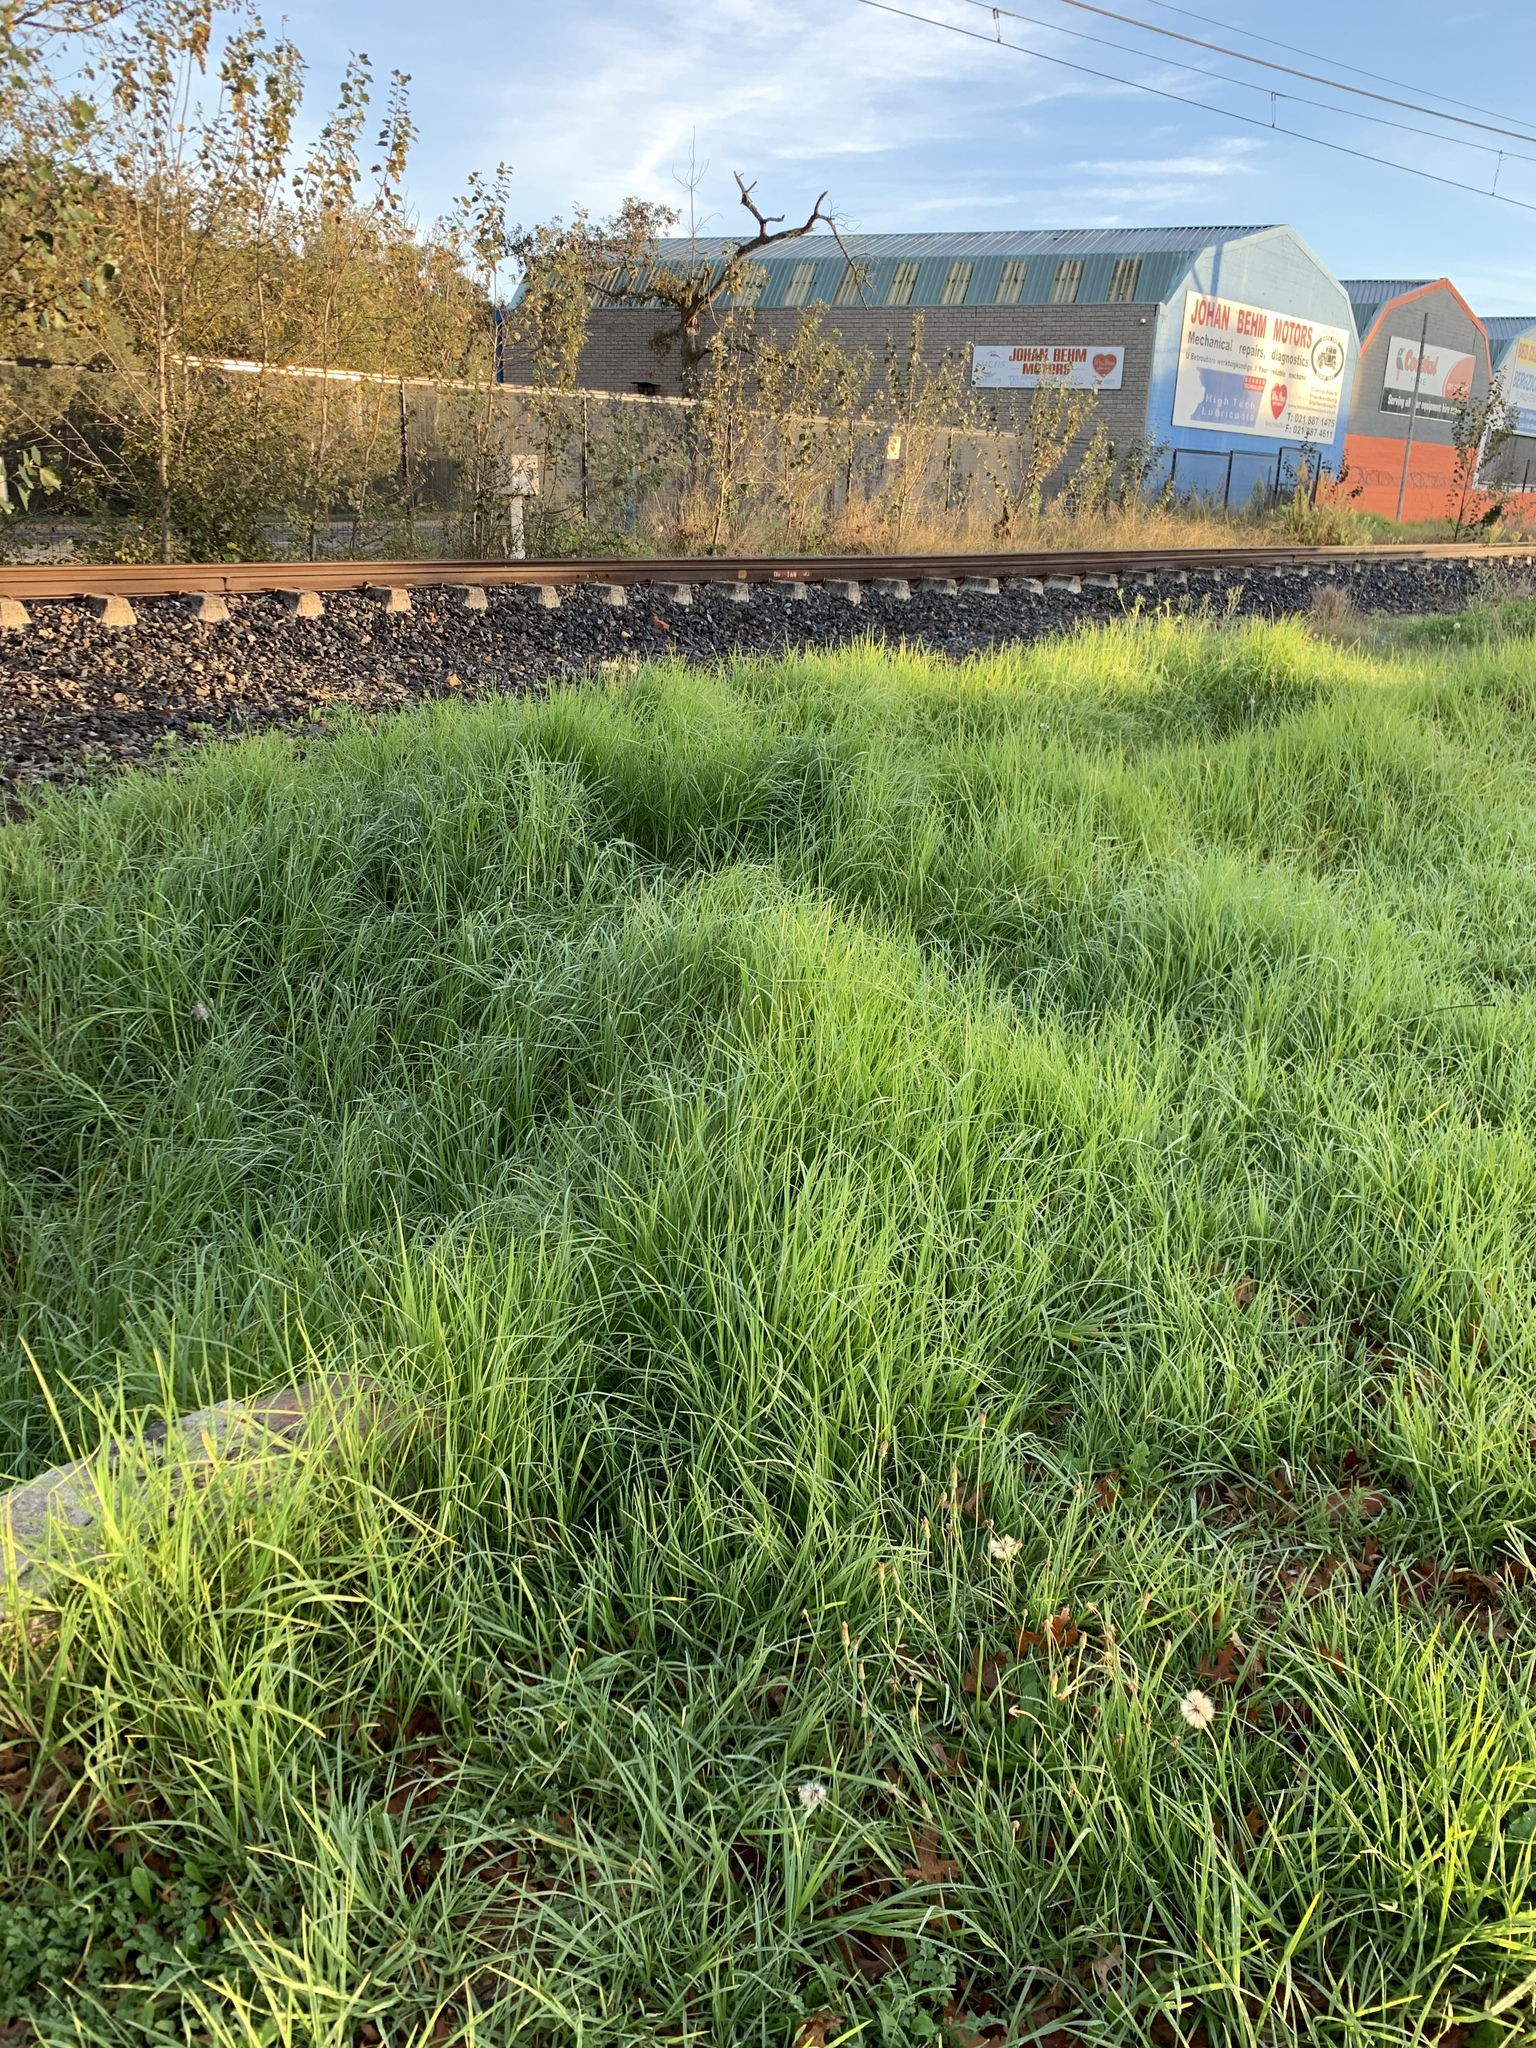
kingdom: Plantae
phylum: Tracheophyta
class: Liliopsida
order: Poales
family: Poaceae
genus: Cenchrus
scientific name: Cenchrus clandestinus
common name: Kikuyugrass
